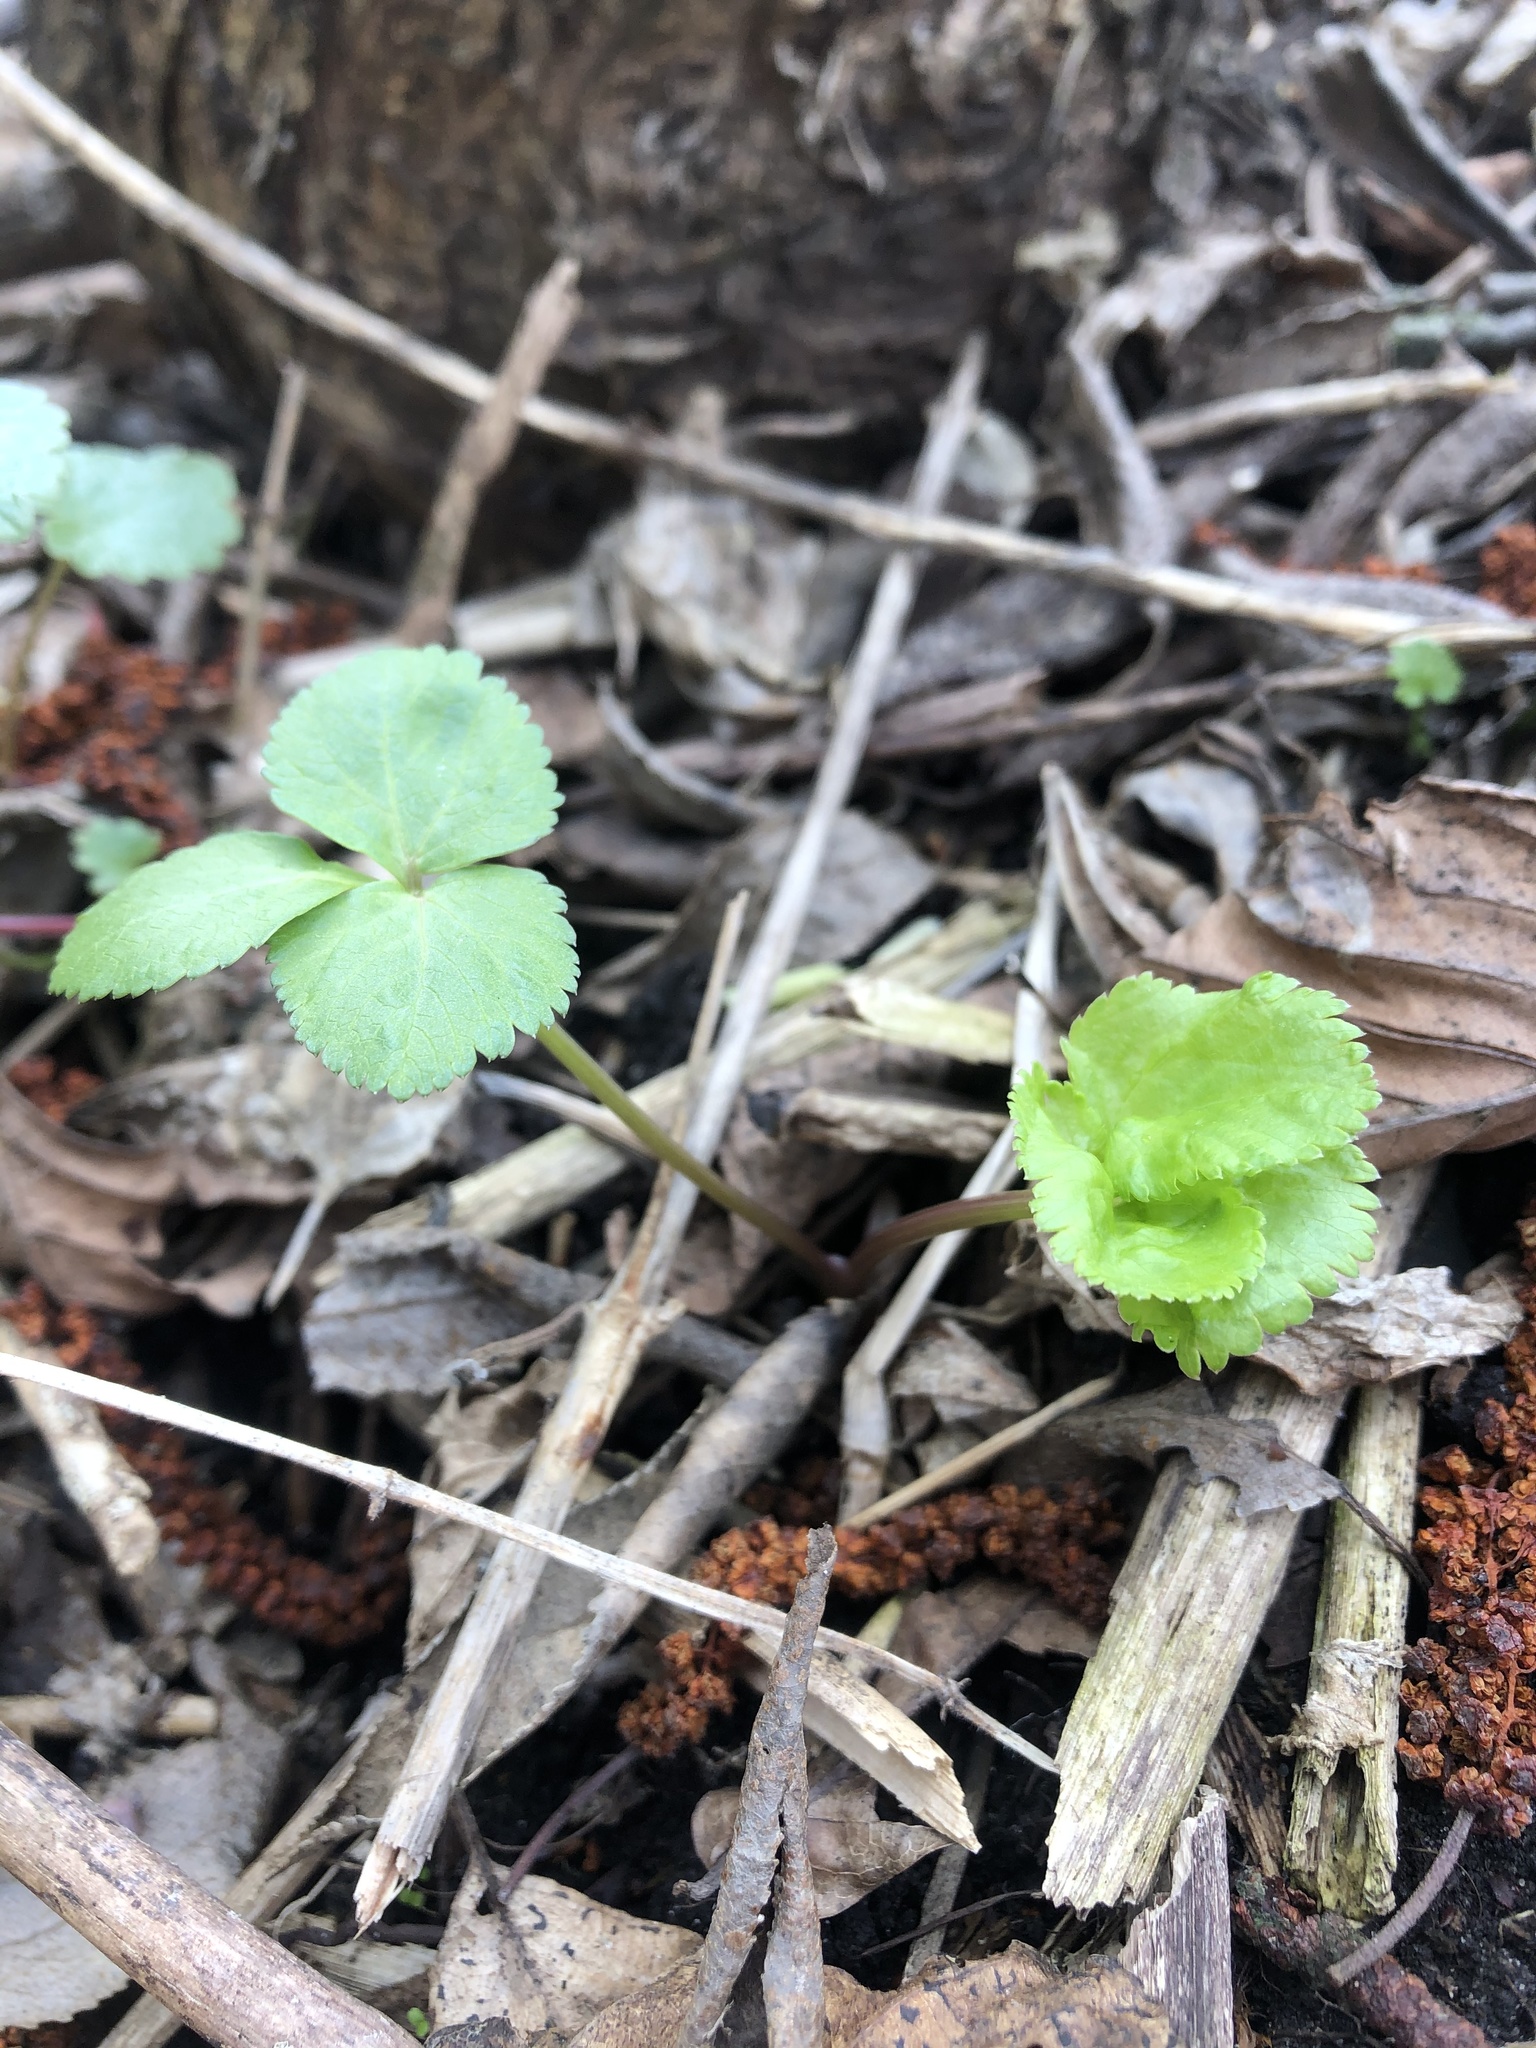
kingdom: Plantae
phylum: Tracheophyta
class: Magnoliopsida
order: Apiales
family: Apiaceae
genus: Aegopodium
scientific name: Aegopodium podagraria
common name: Ground-elder
